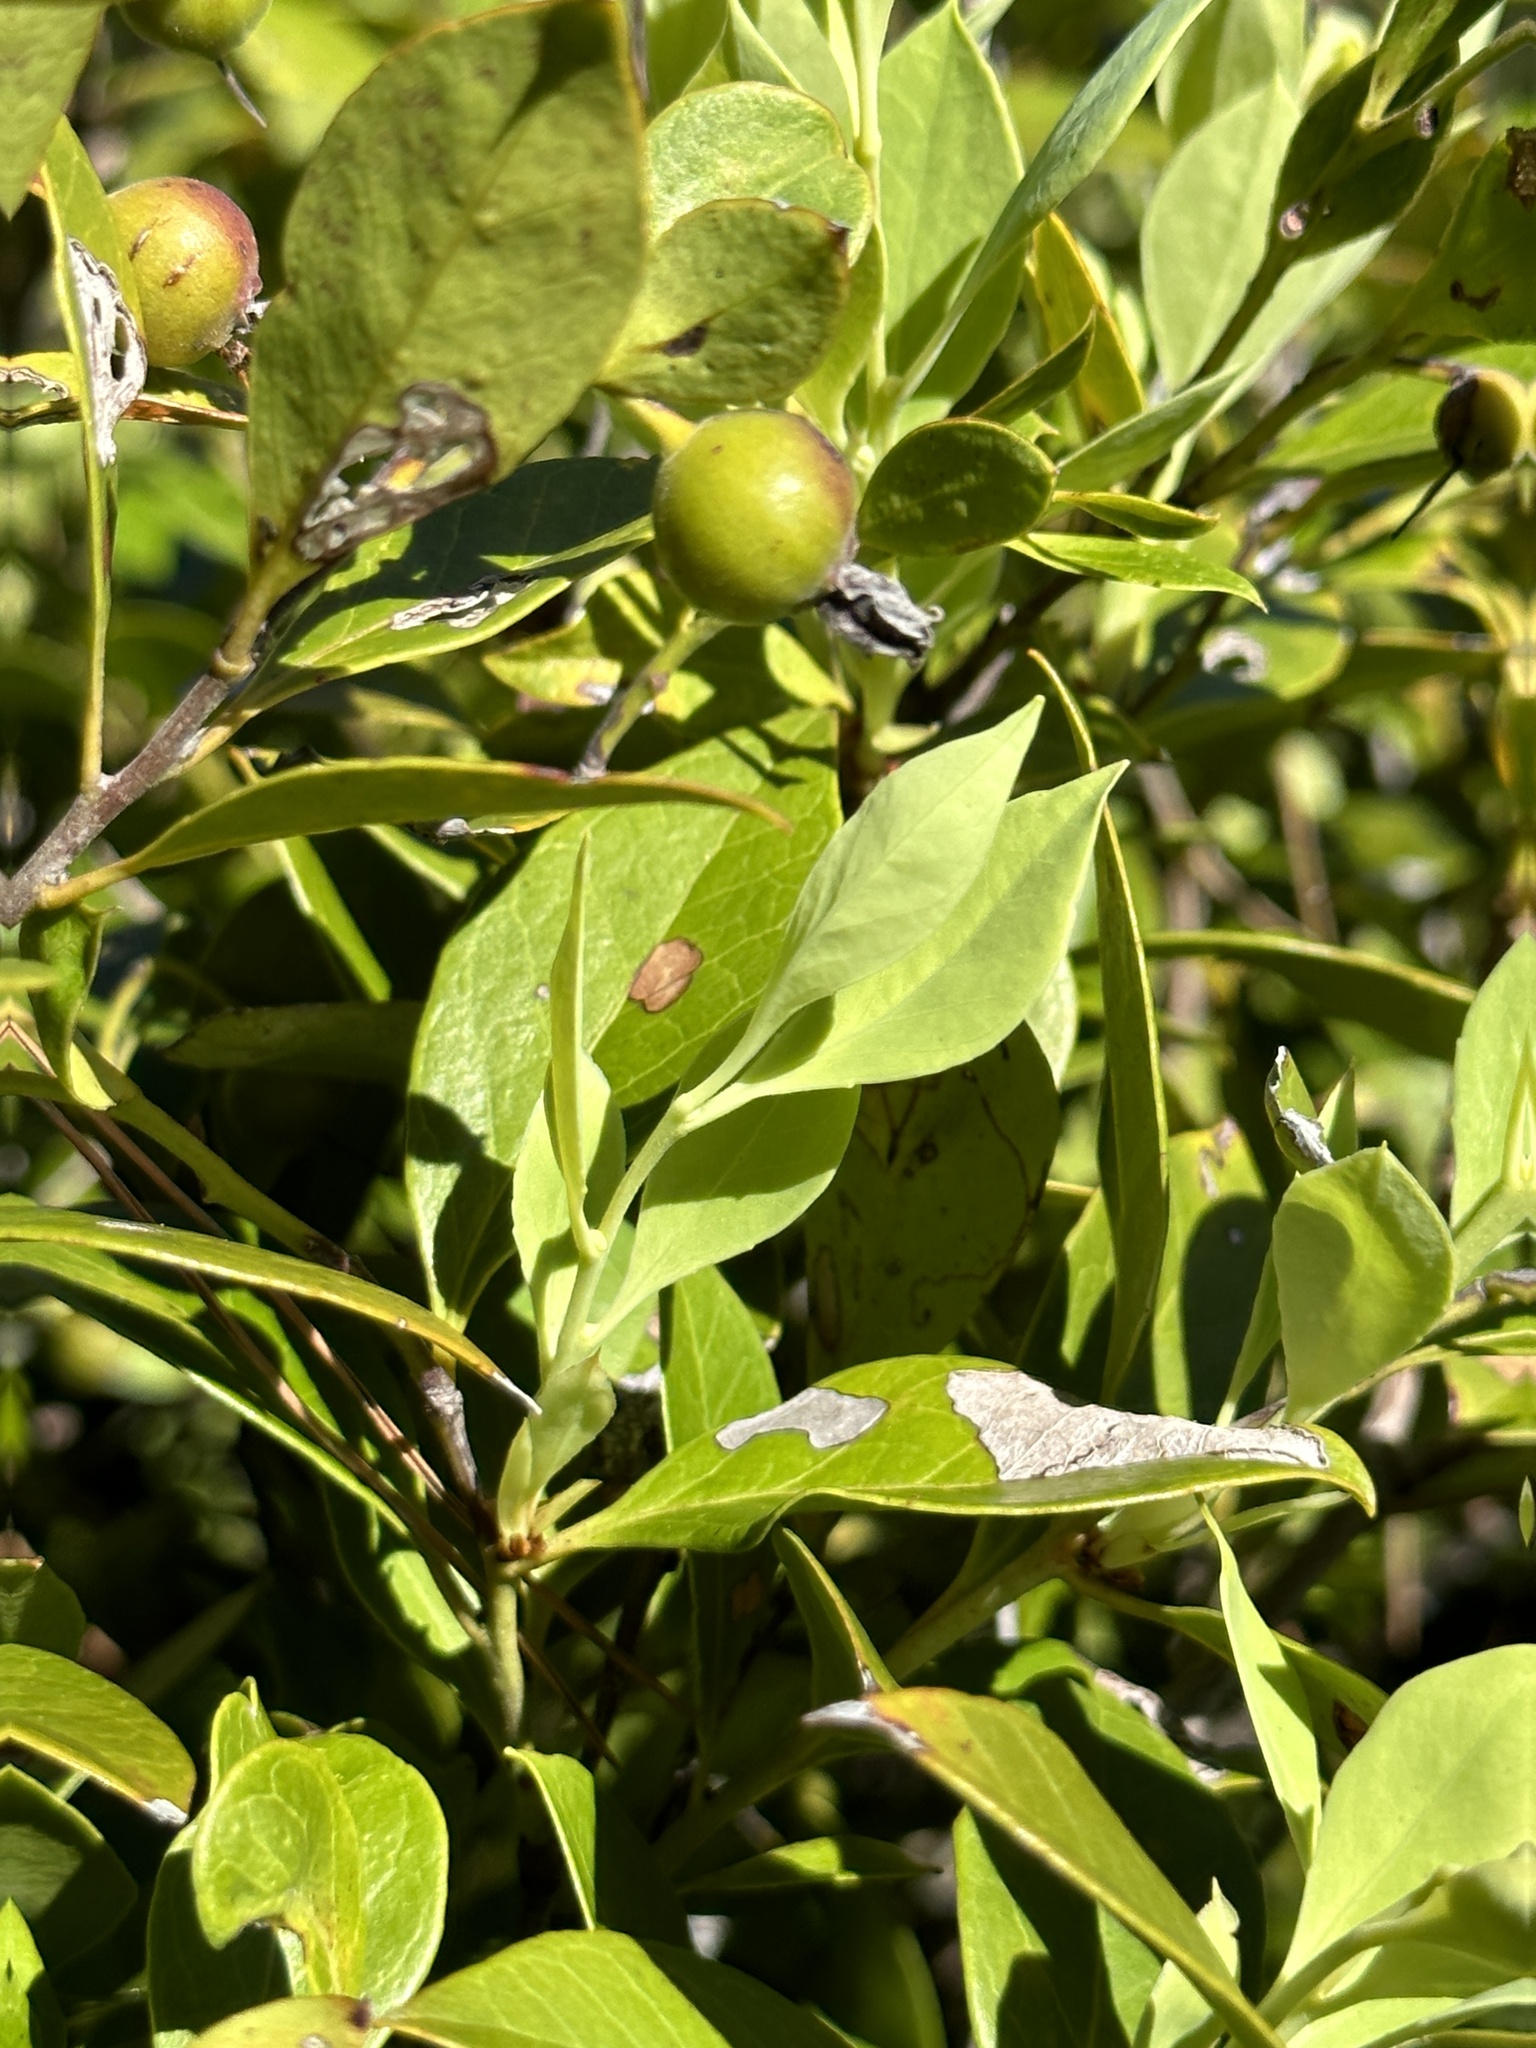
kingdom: Plantae
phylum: Tracheophyta
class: Magnoliopsida
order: Ericales
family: Ericaceae
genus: Vaccinium
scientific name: Vaccinium boninense
